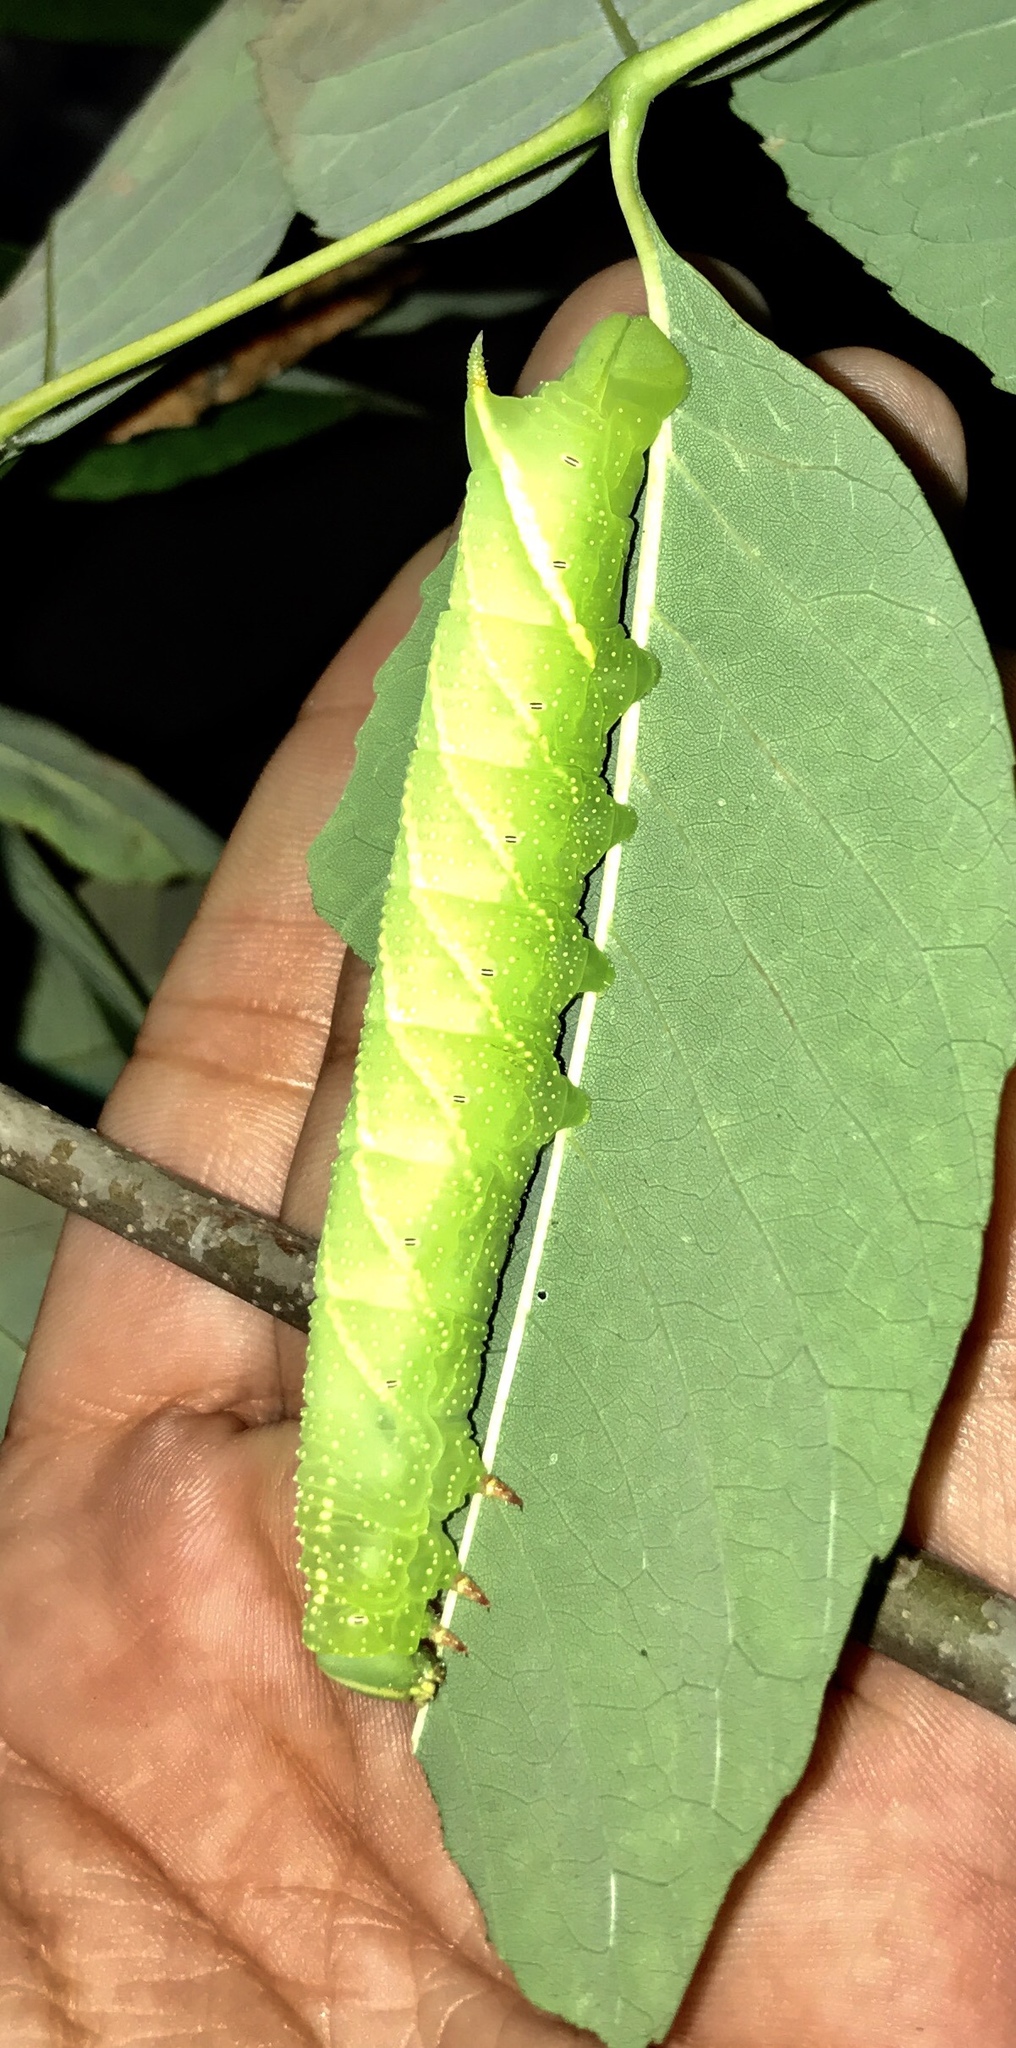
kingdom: Animalia
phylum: Arthropoda
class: Insecta
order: Lepidoptera
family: Sphingidae
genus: Manduca
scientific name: Manduca jasminearum
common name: Ash sphinx
